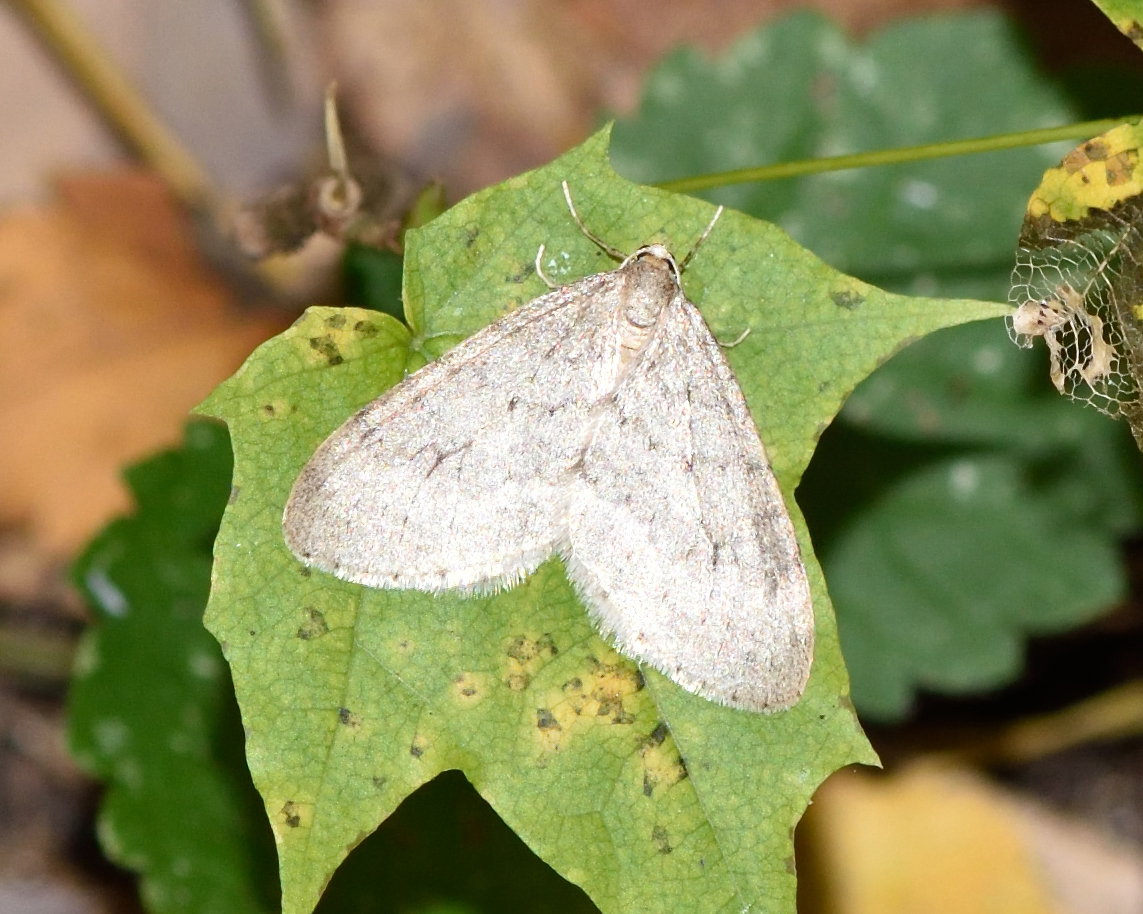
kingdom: Animalia
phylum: Arthropoda
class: Insecta
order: Lepidoptera
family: Geometridae
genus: Operophtera
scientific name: Operophtera fagata
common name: Northern winter moth
